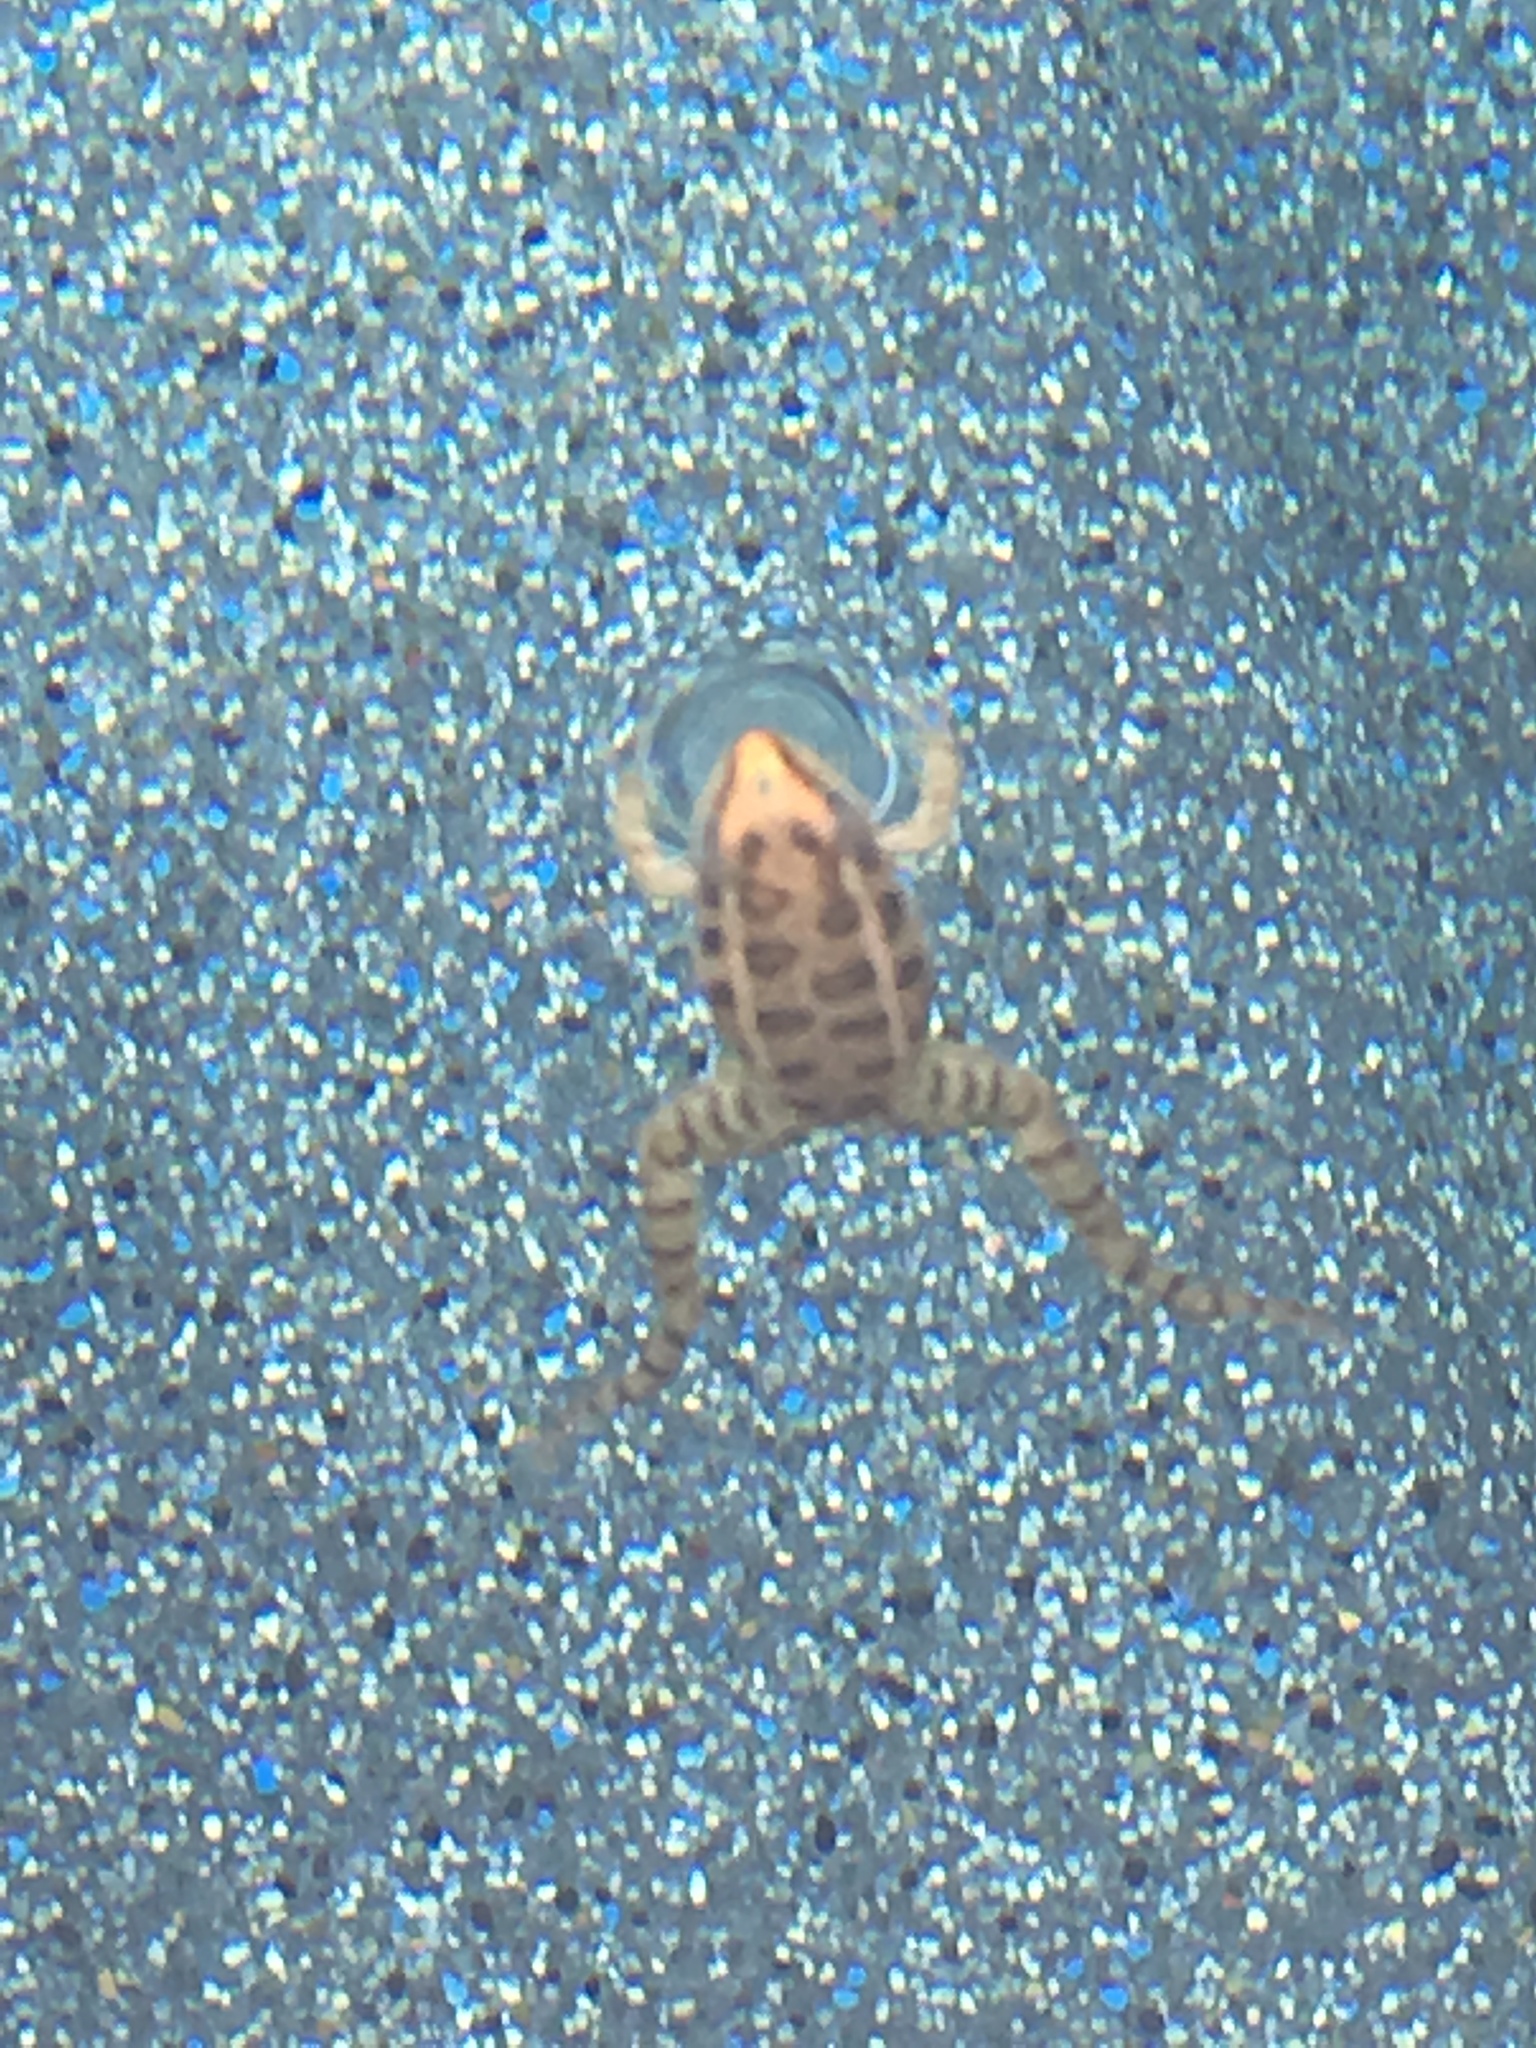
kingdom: Animalia
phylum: Chordata
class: Amphibia
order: Anura
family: Ranidae
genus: Lithobates
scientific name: Lithobates palustris
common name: Pickerel frog
